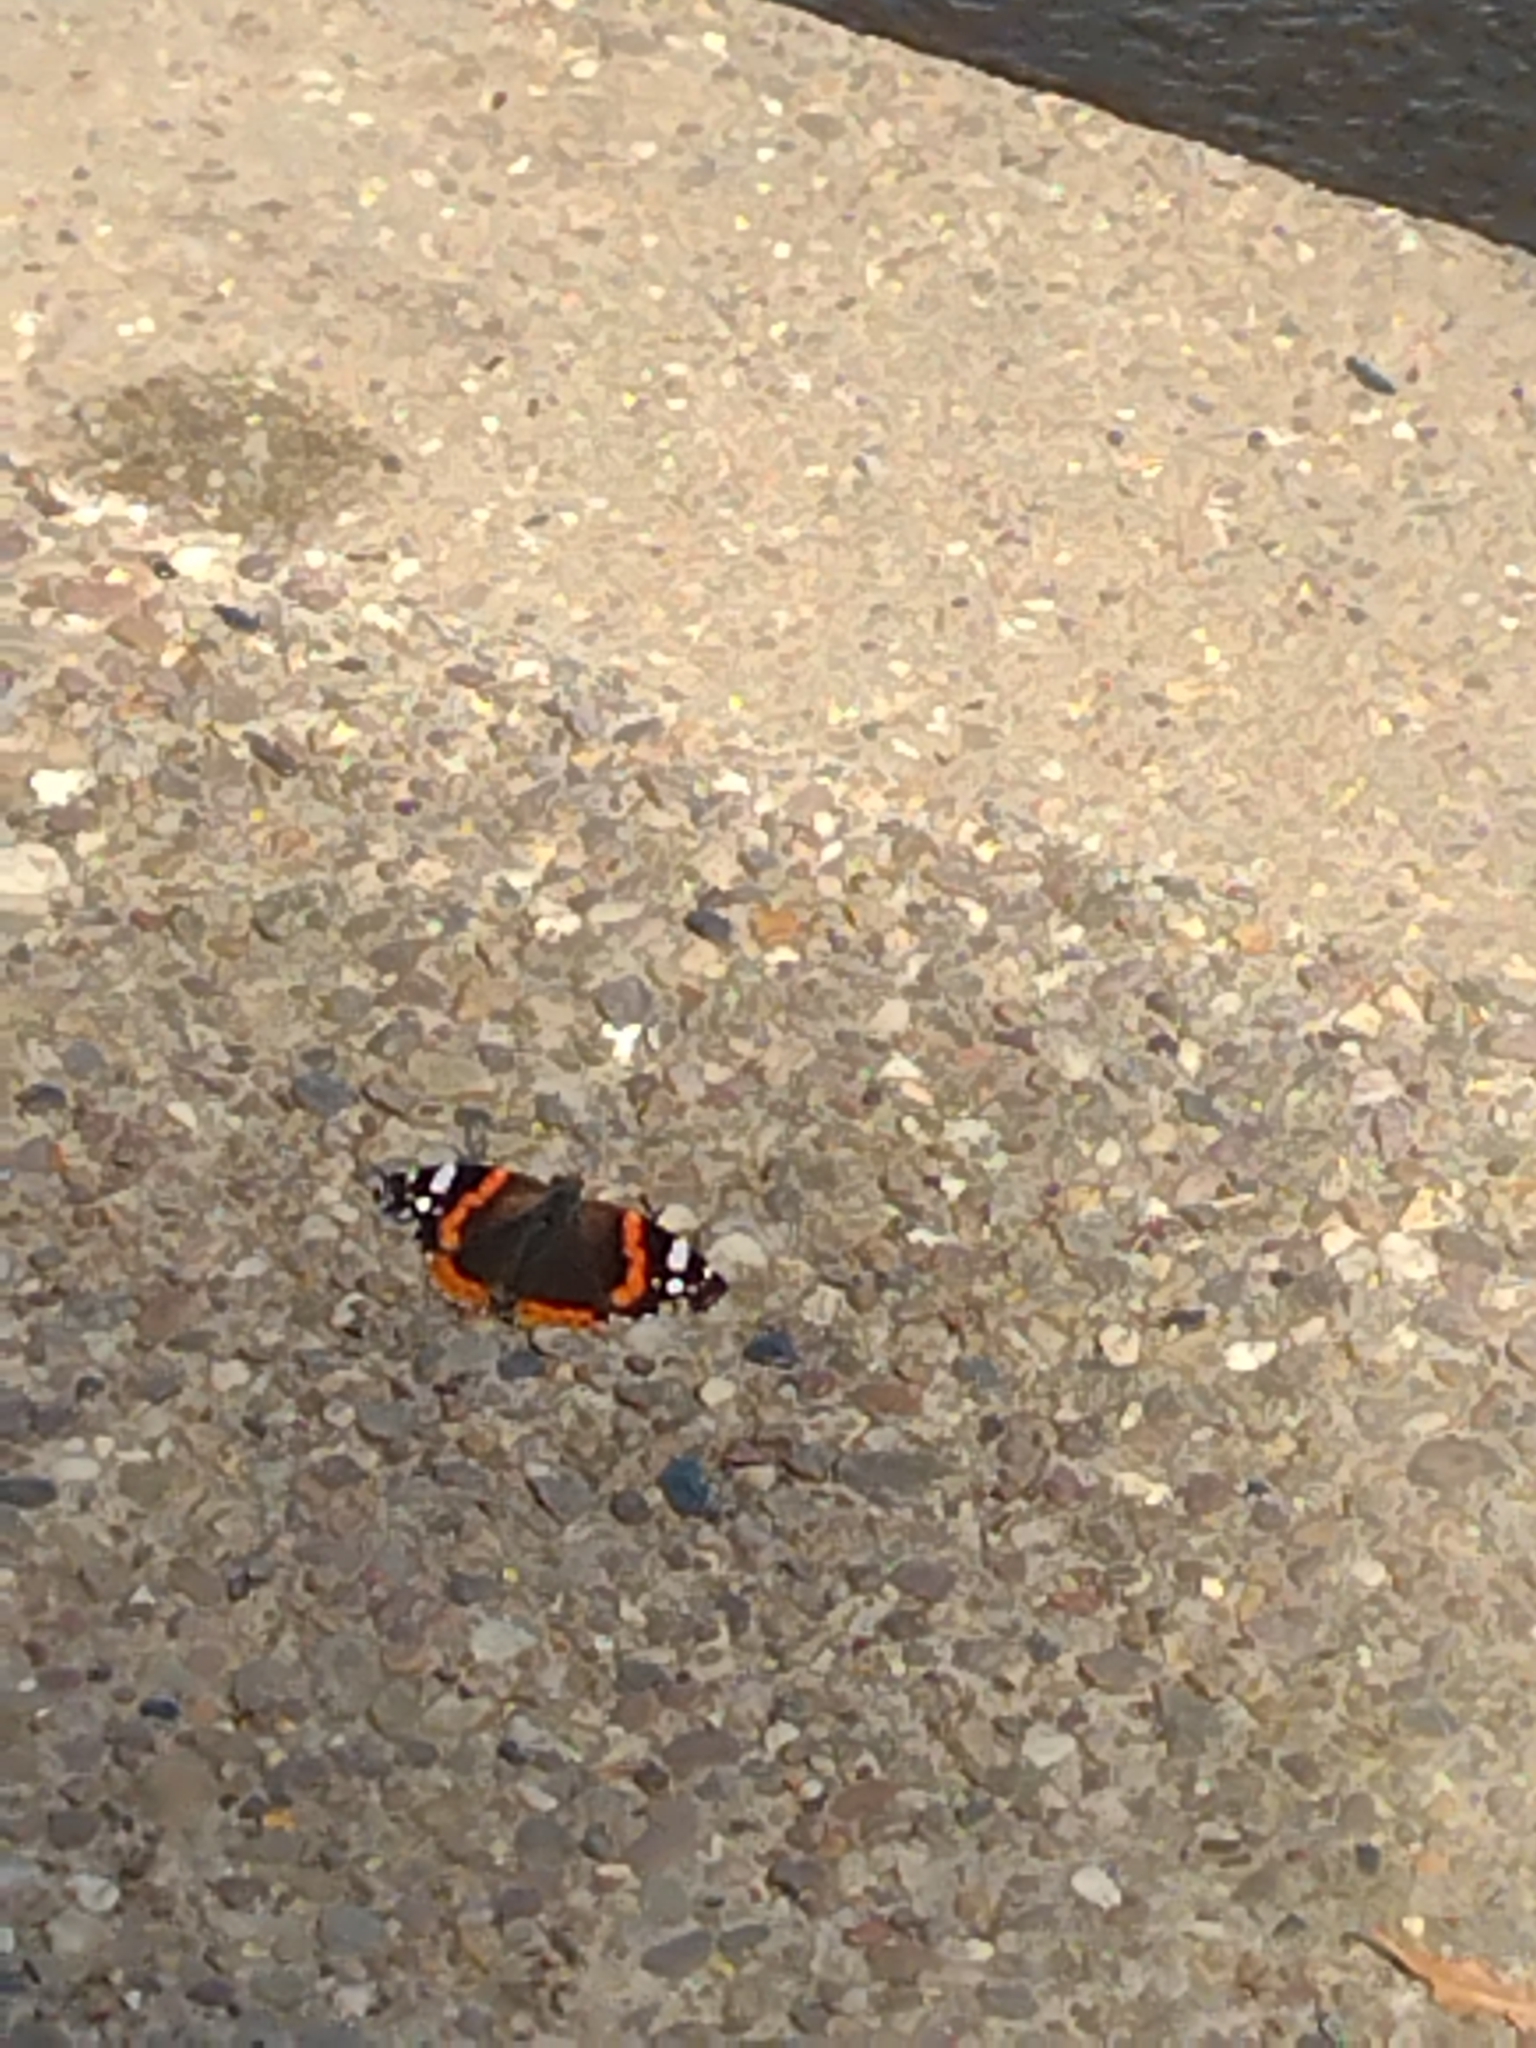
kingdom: Animalia
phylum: Arthropoda
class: Insecta
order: Lepidoptera
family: Nymphalidae
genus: Vanessa
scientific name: Vanessa atalanta
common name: Red admiral
